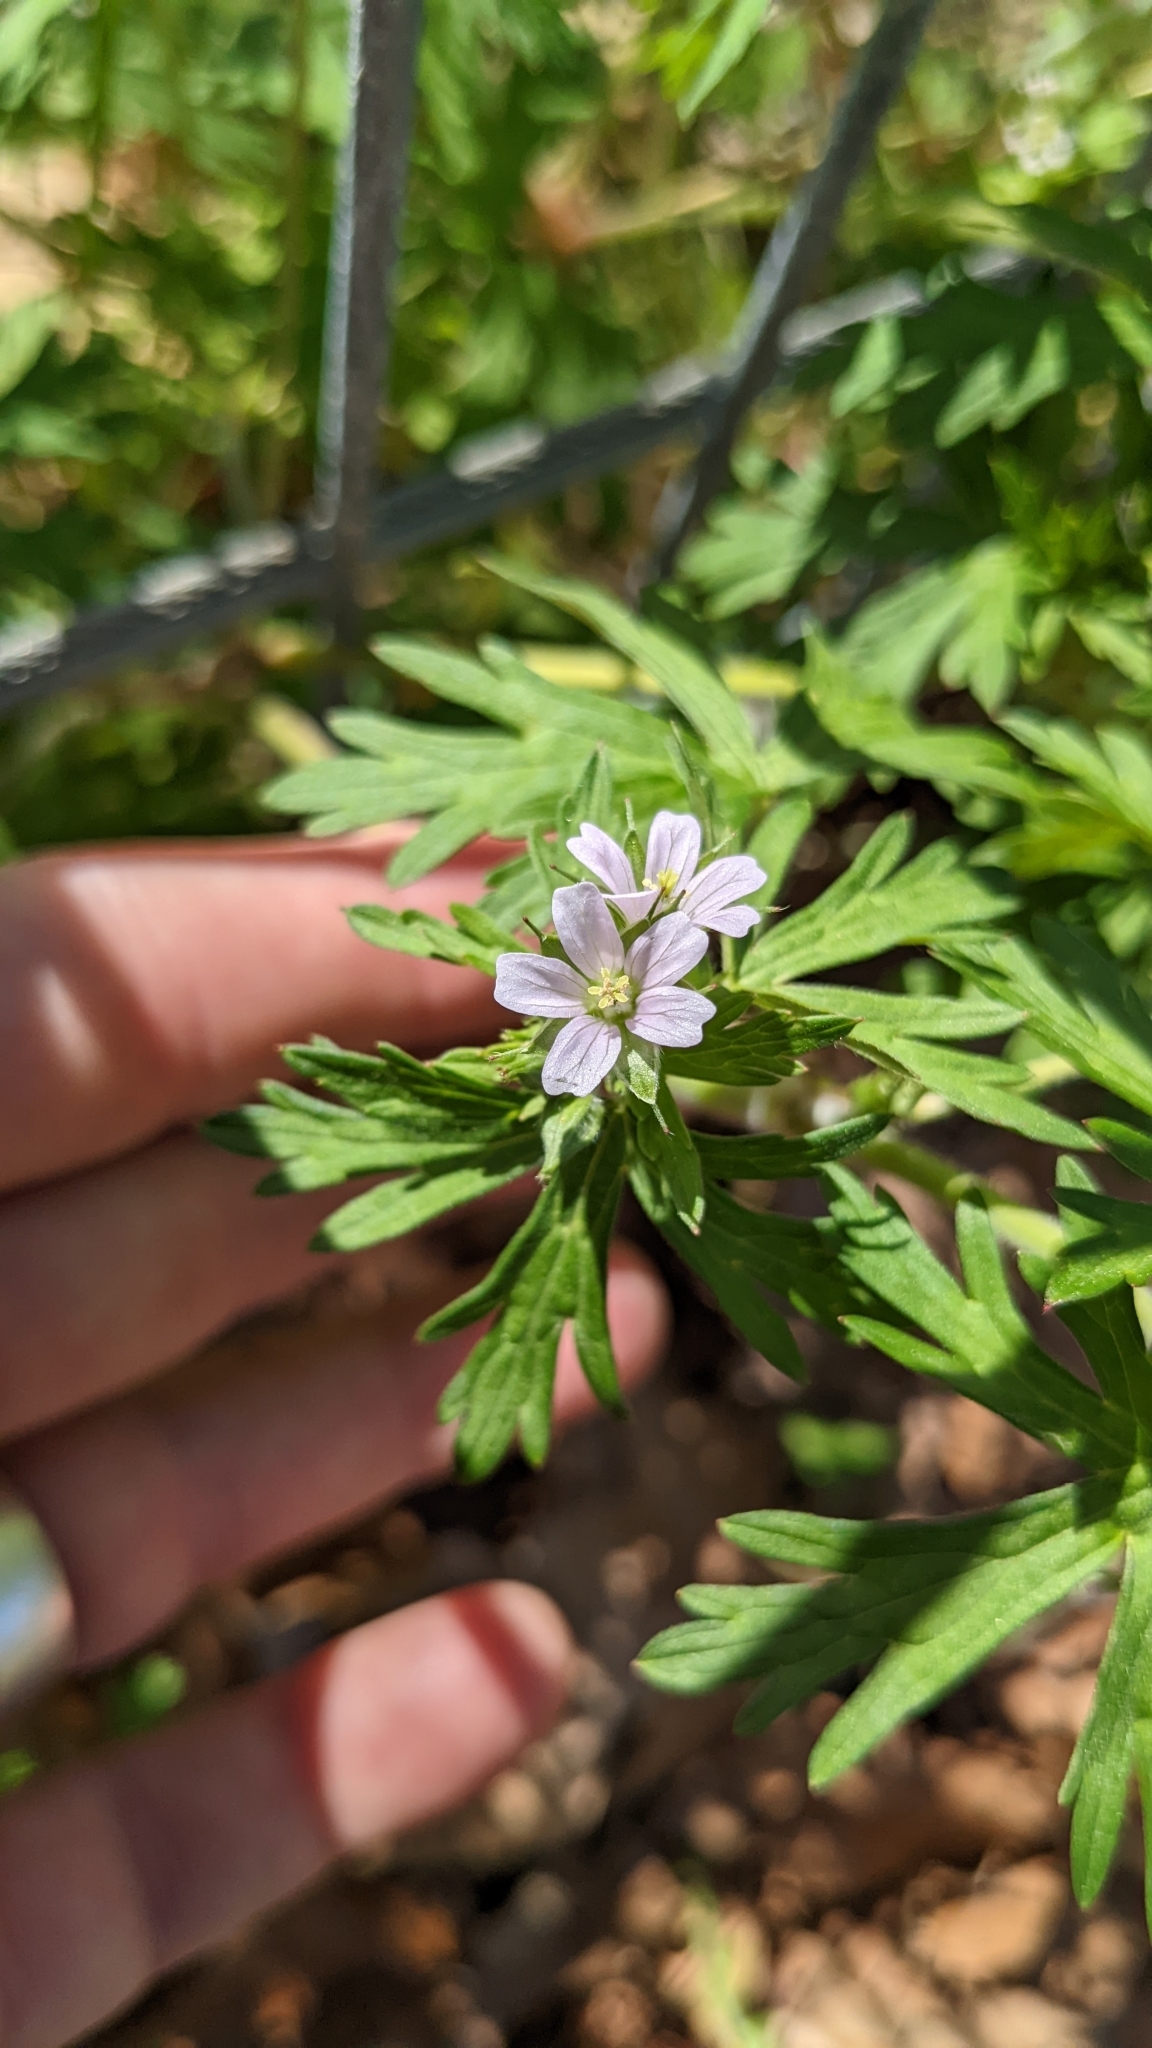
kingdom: Plantae
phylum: Tracheophyta
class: Magnoliopsida
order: Geraniales
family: Geraniaceae
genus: Geranium
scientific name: Geranium carolinianum
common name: Carolina crane's-bill
